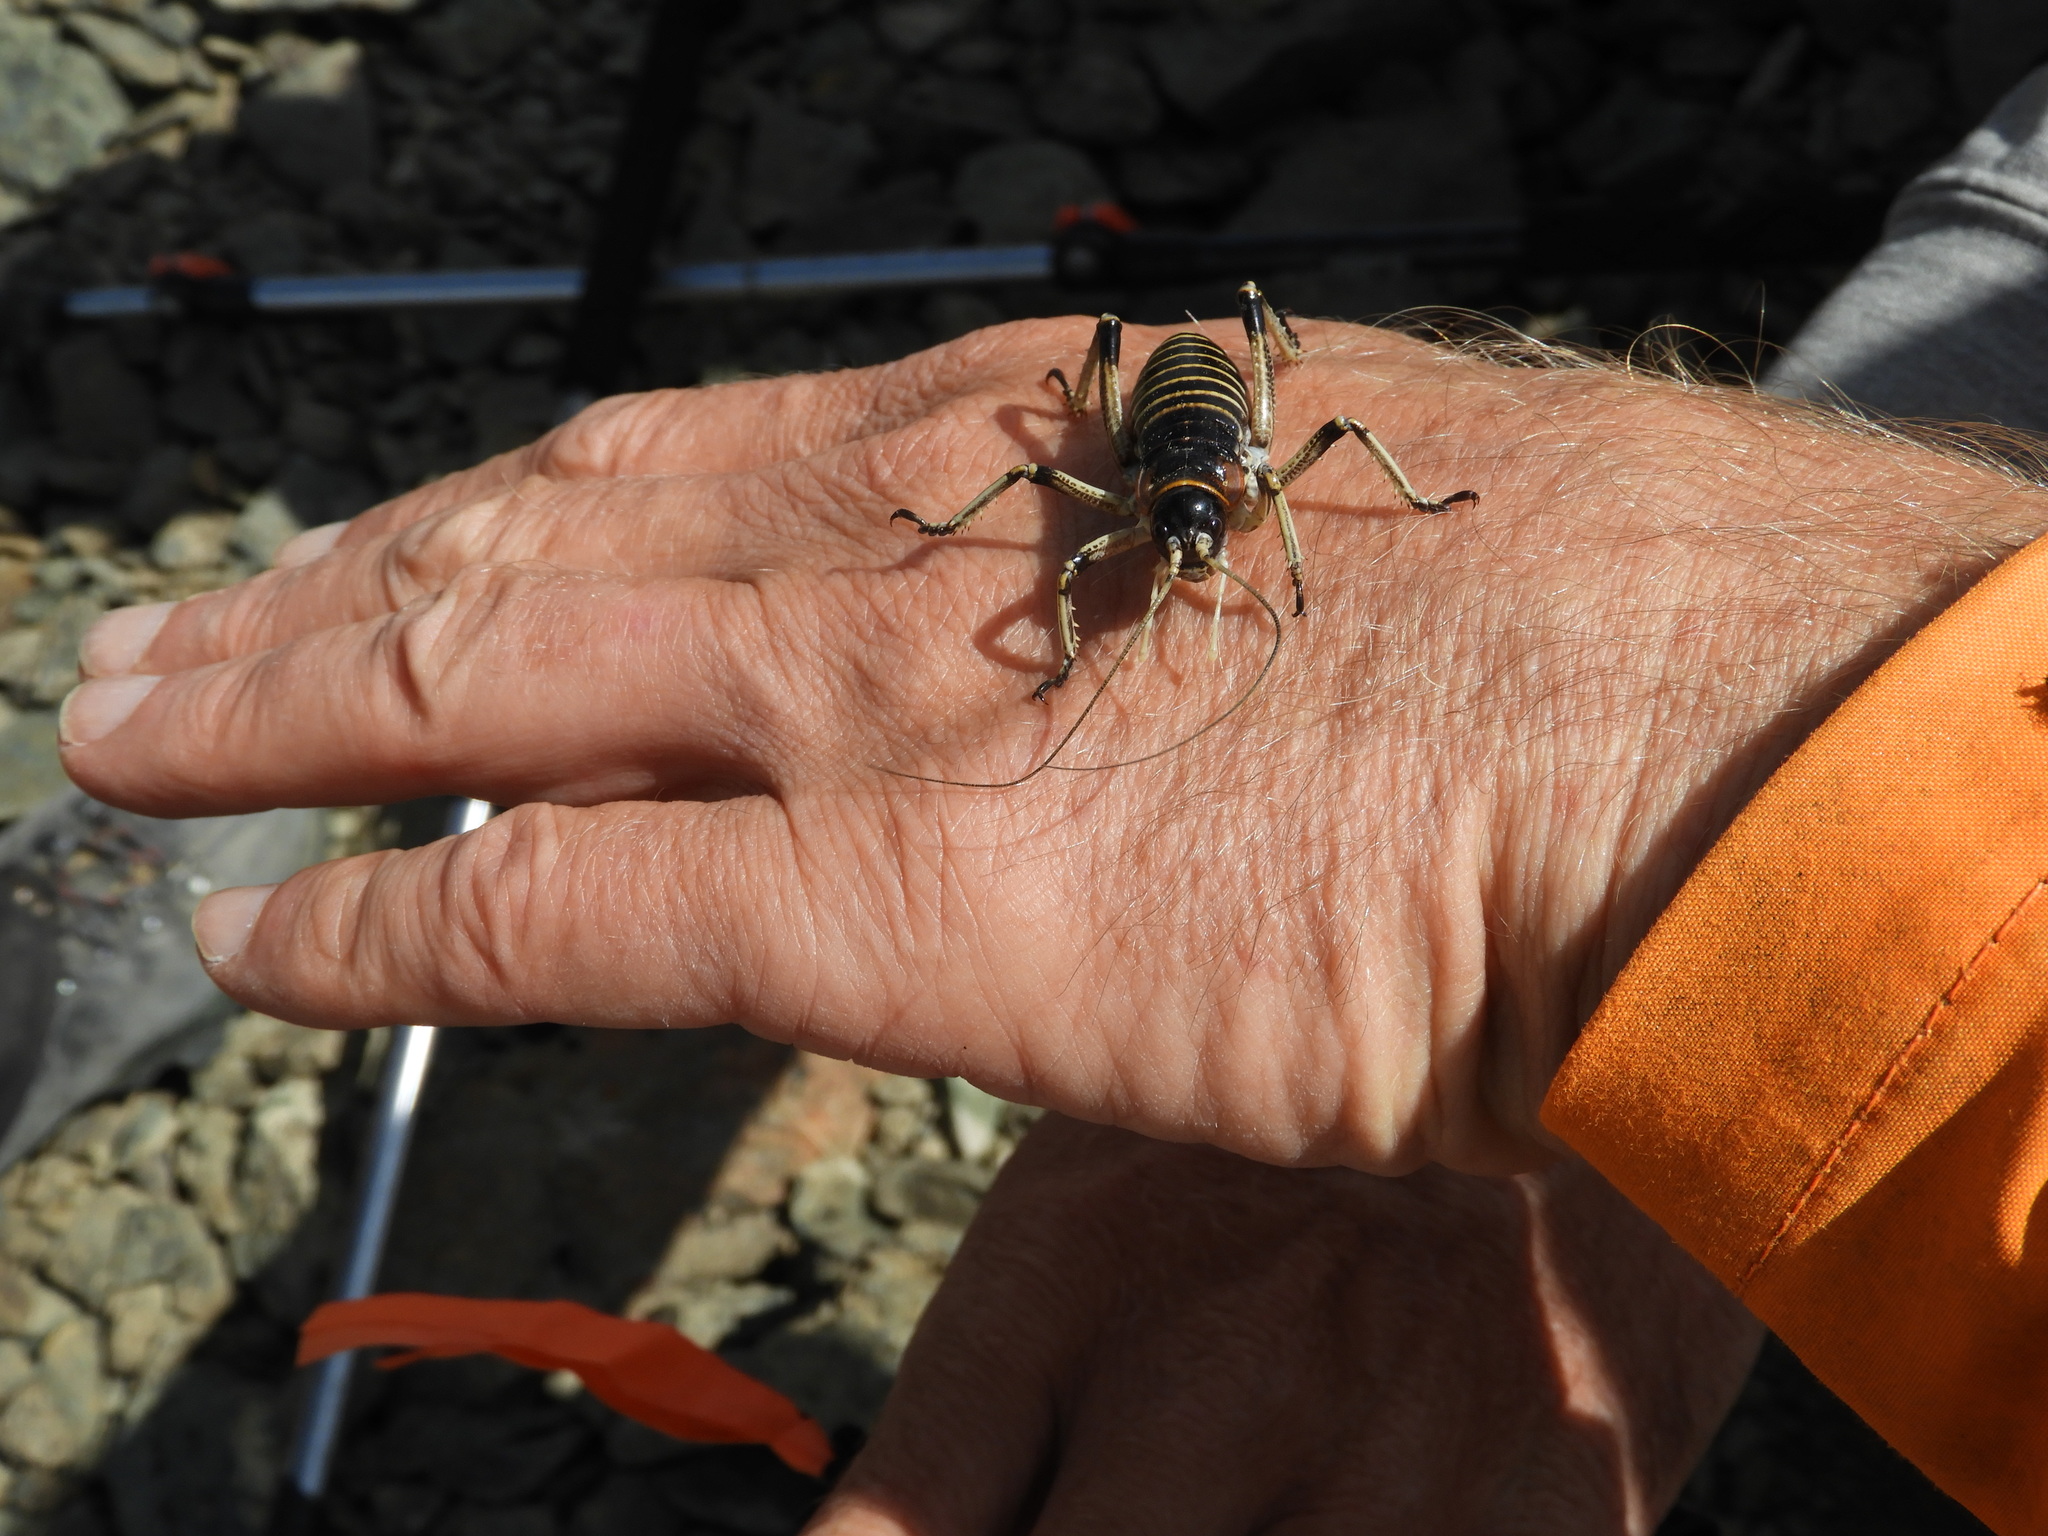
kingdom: Animalia
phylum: Arthropoda
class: Insecta
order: Orthoptera
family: Anostostomatidae
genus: Deinacrida
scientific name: Deinacrida connectens
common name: Scree weta
